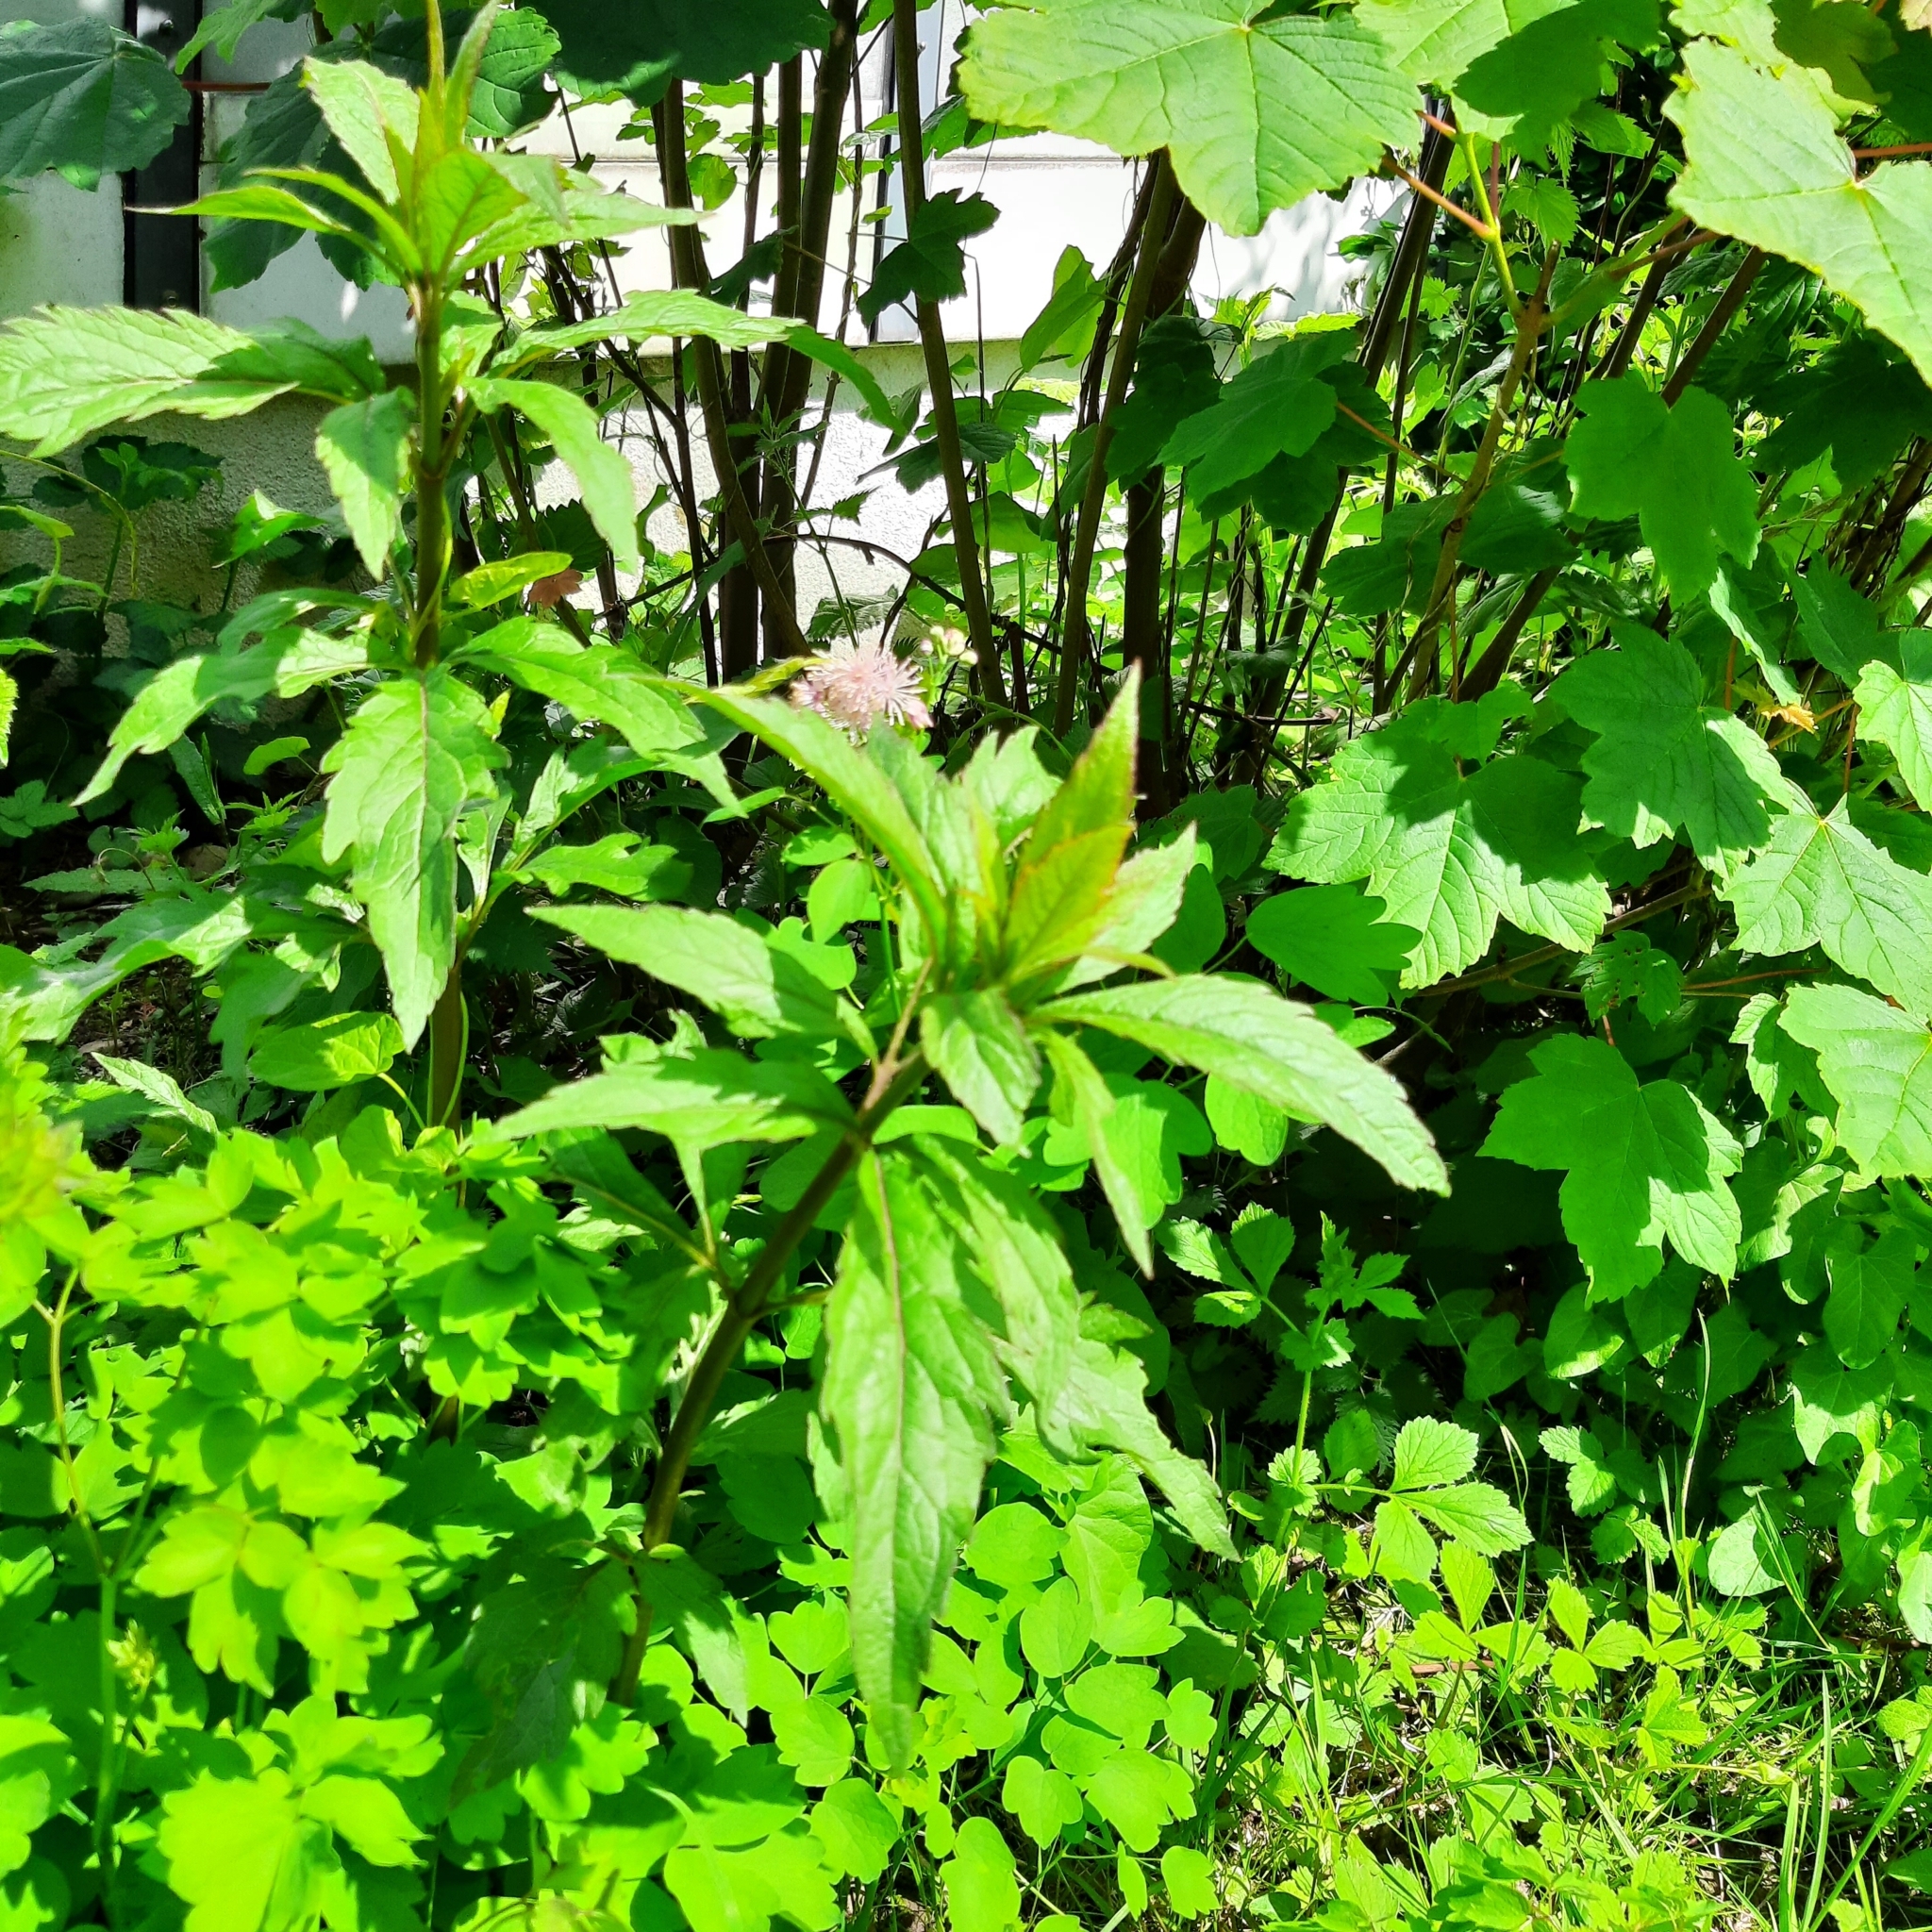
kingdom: Plantae
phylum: Tracheophyta
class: Magnoliopsida
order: Asterales
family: Asteraceae
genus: Eupatorium
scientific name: Eupatorium cannabinum
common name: Hemp-agrimony
